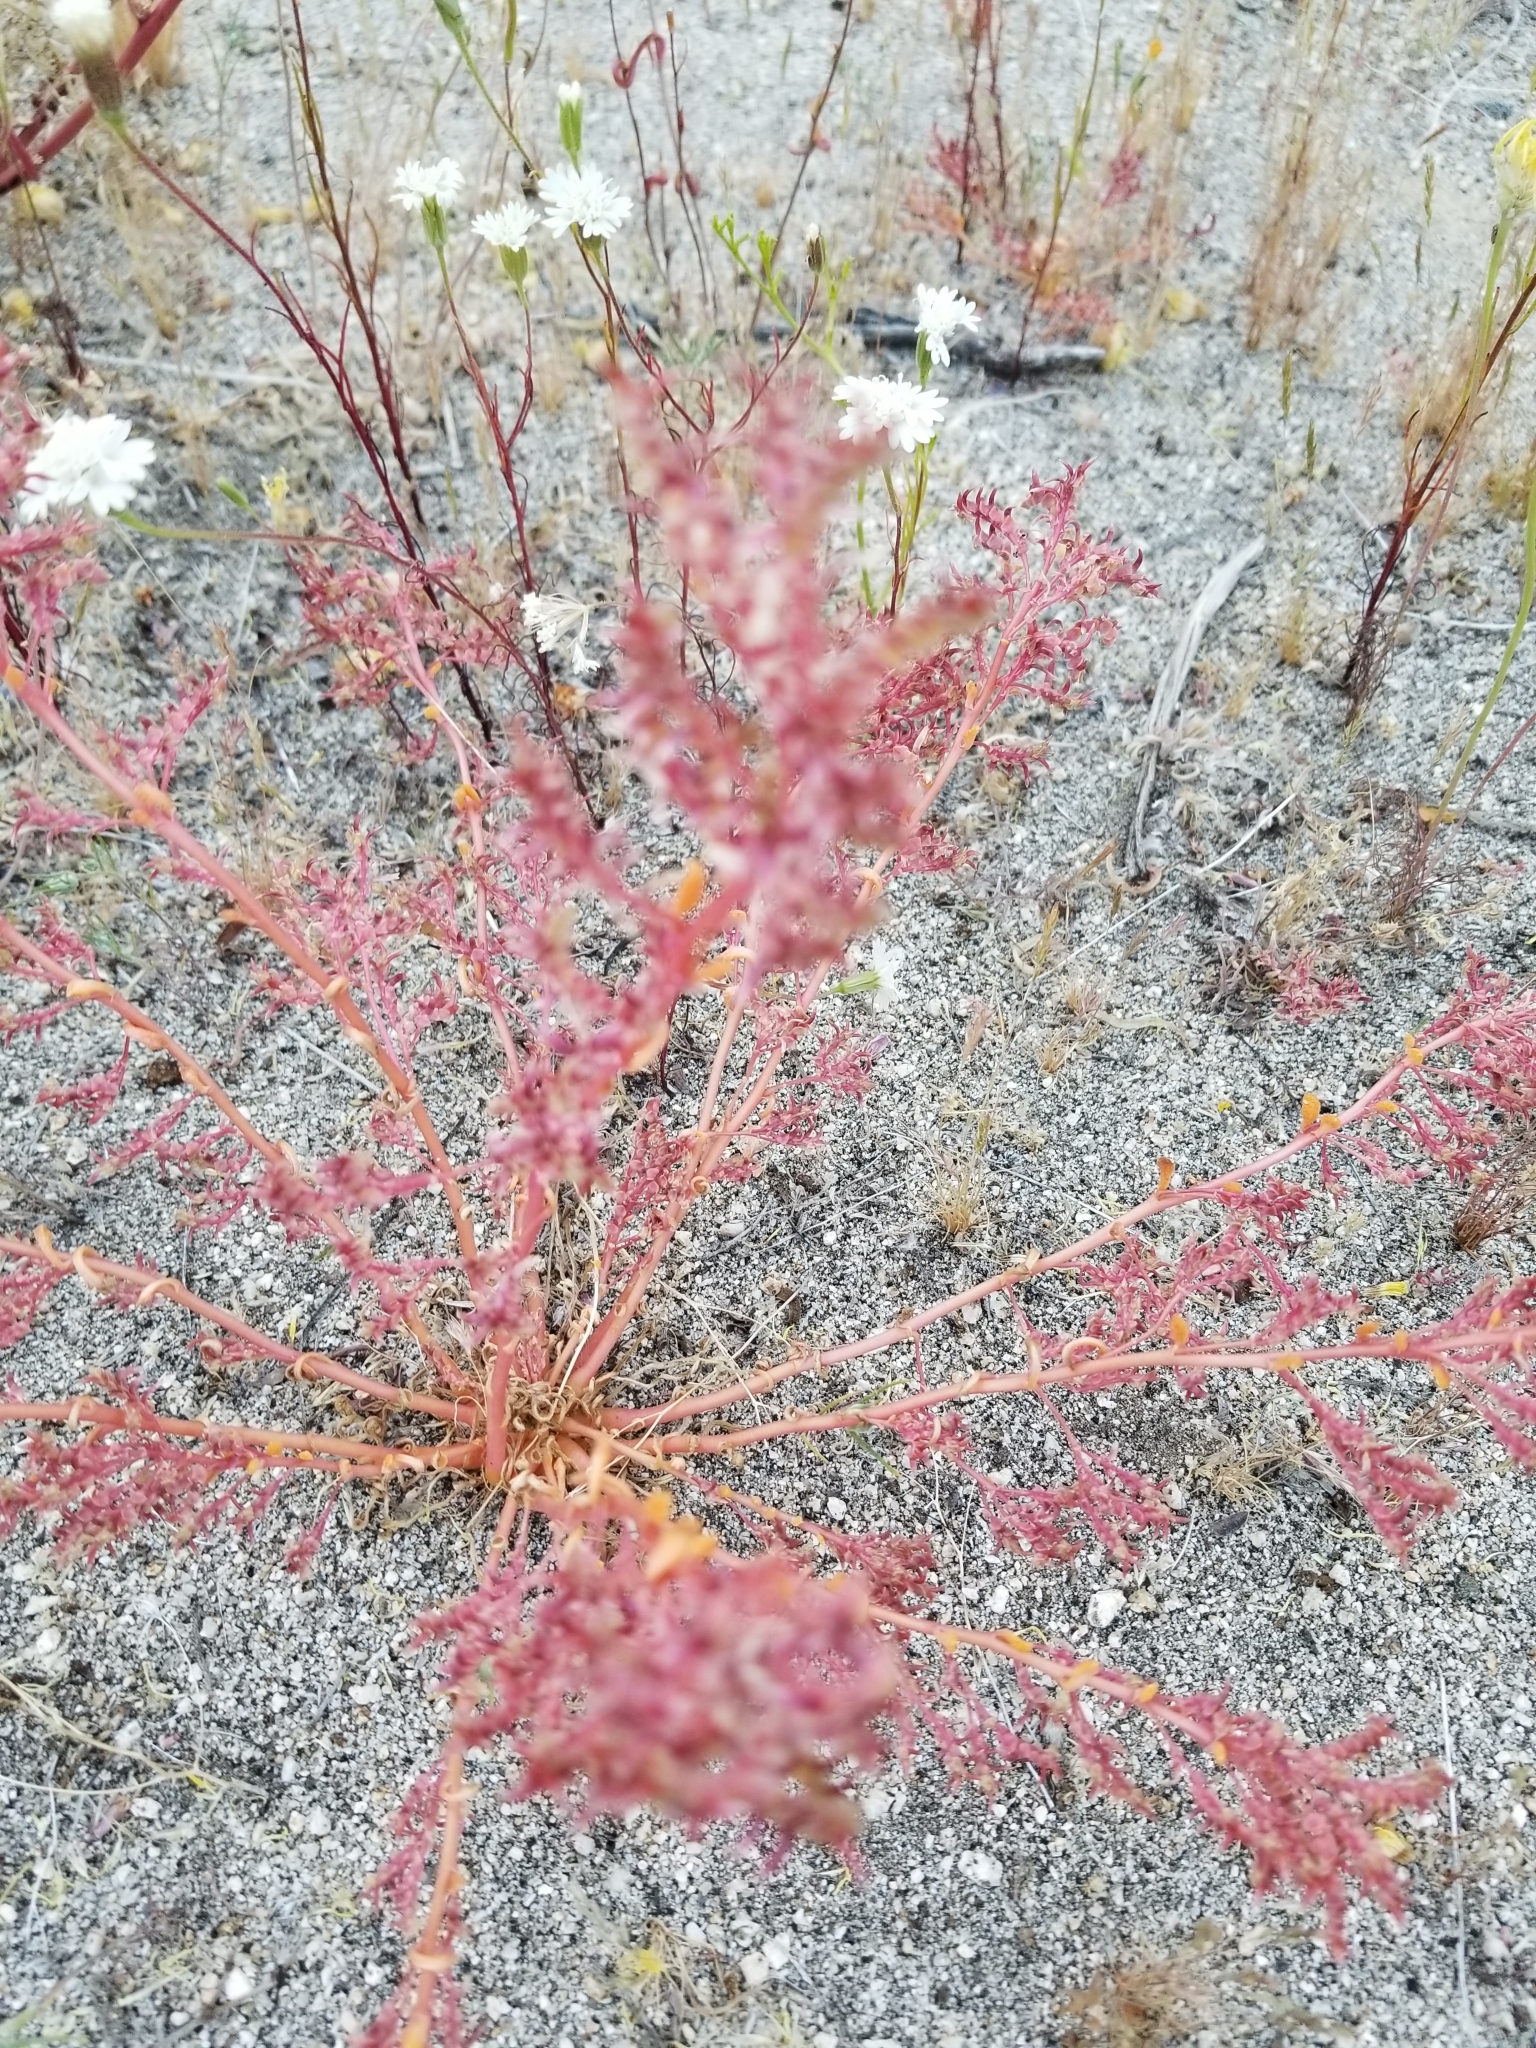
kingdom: Plantae
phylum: Tracheophyta
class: Magnoliopsida
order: Caryophyllales
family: Montiaceae
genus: Calyptridium
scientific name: Calyptridium monandrum
